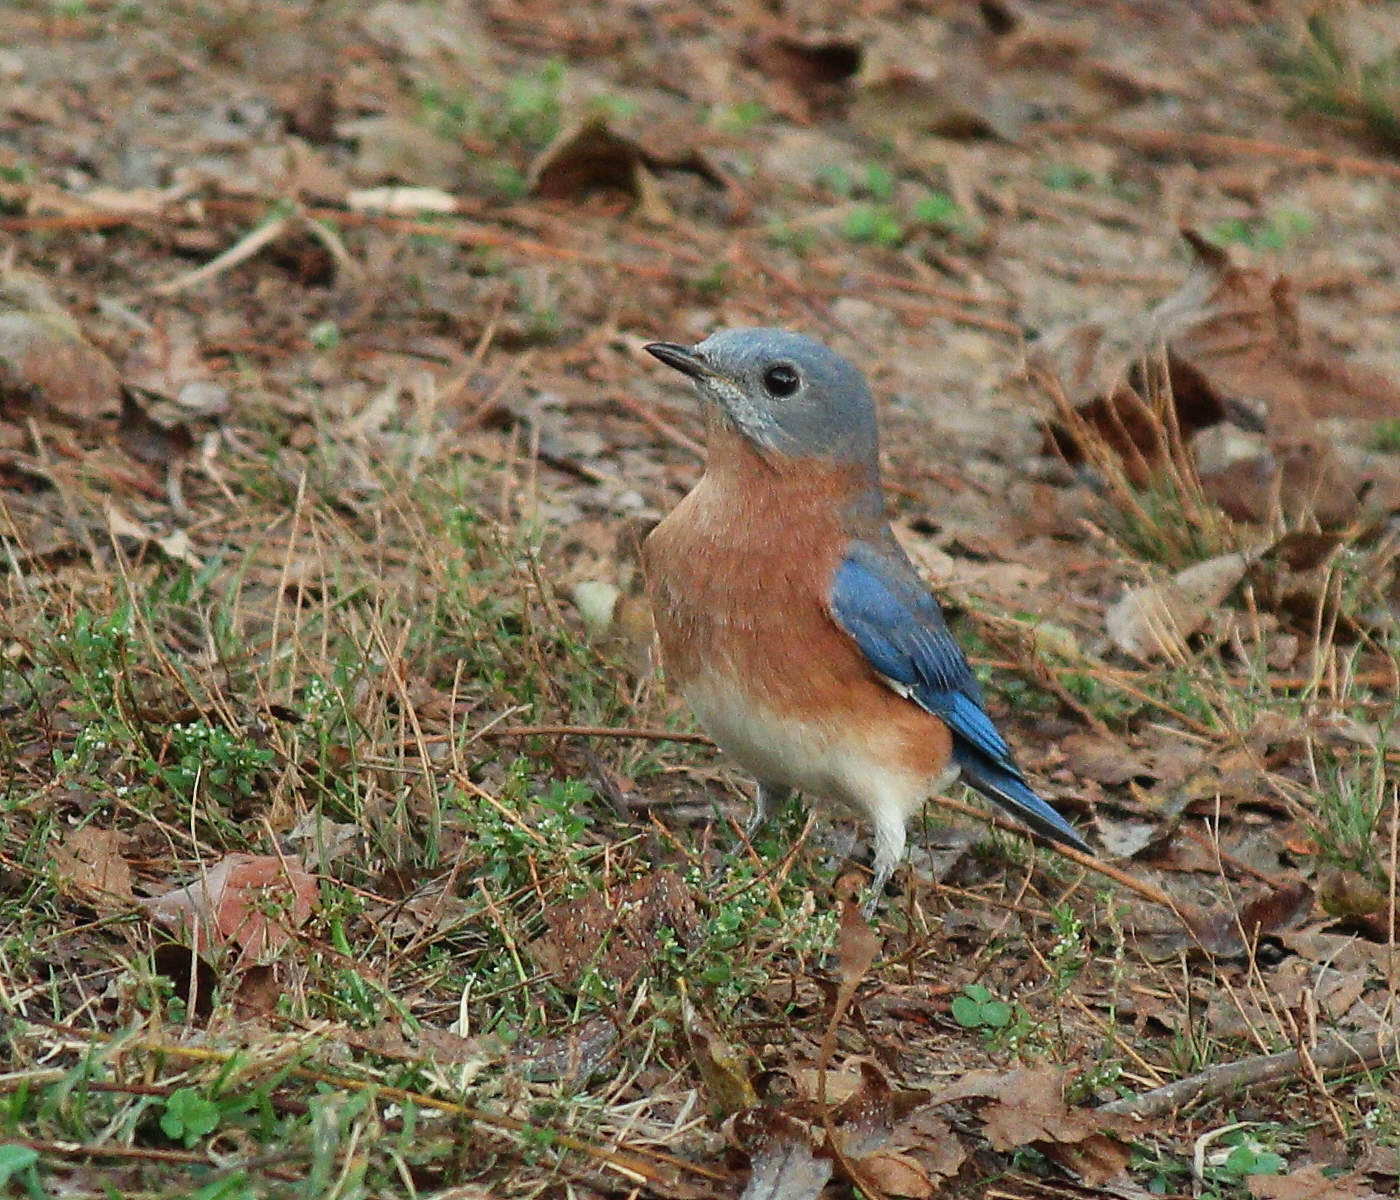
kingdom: Animalia
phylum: Chordata
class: Aves
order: Passeriformes
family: Turdidae
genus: Sialia
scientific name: Sialia sialis
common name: Eastern bluebird
